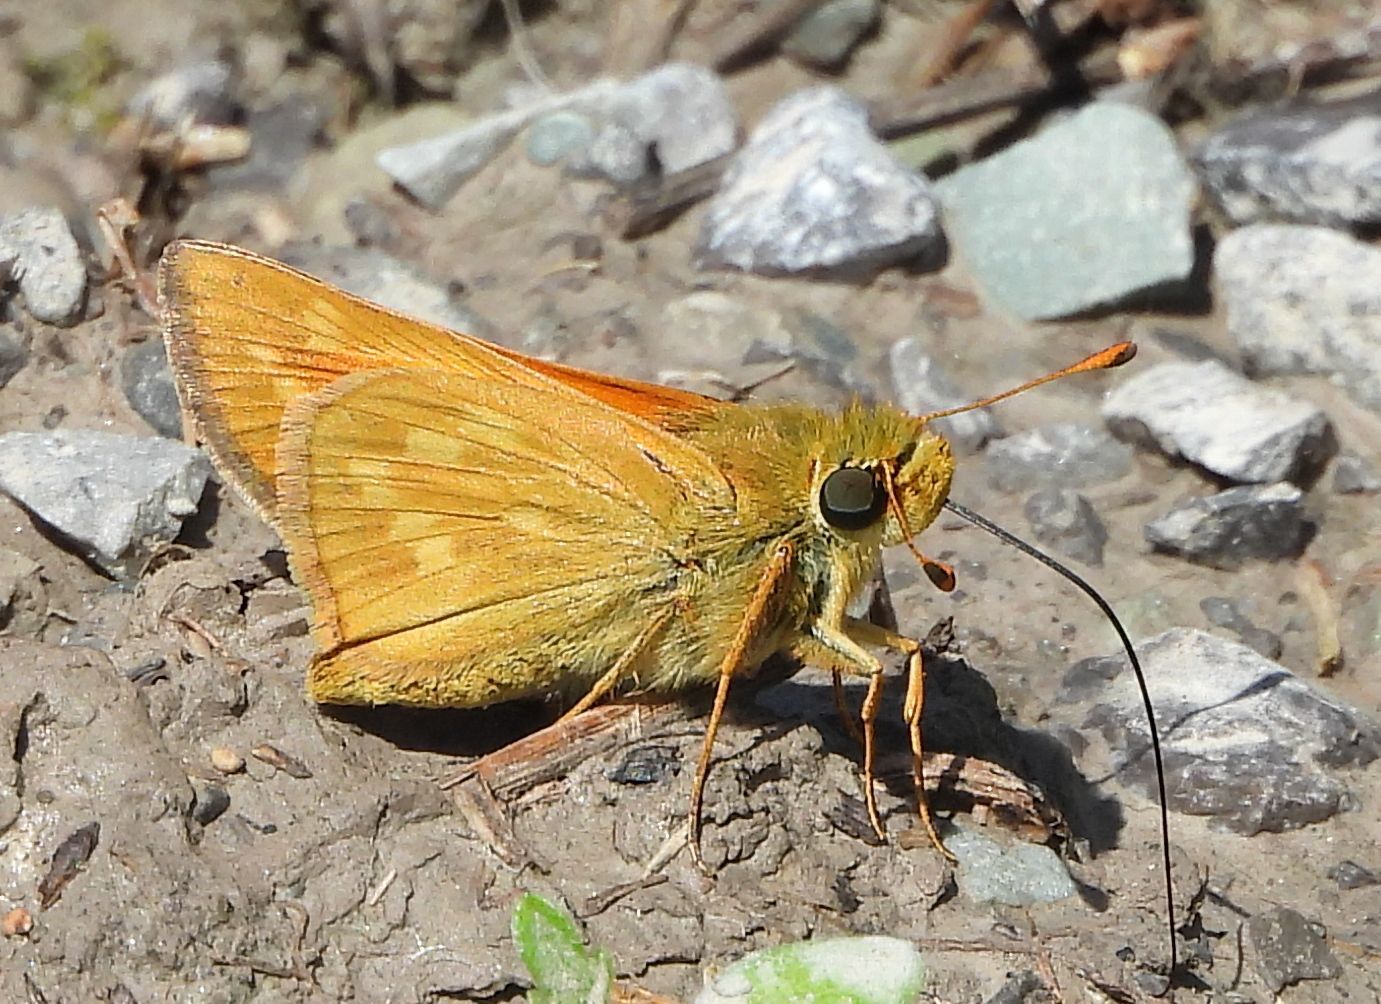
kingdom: Animalia
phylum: Arthropoda
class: Insecta
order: Lepidoptera
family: Hesperiidae
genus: Hesperia
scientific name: Hesperia sassacus
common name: Indian skipper
